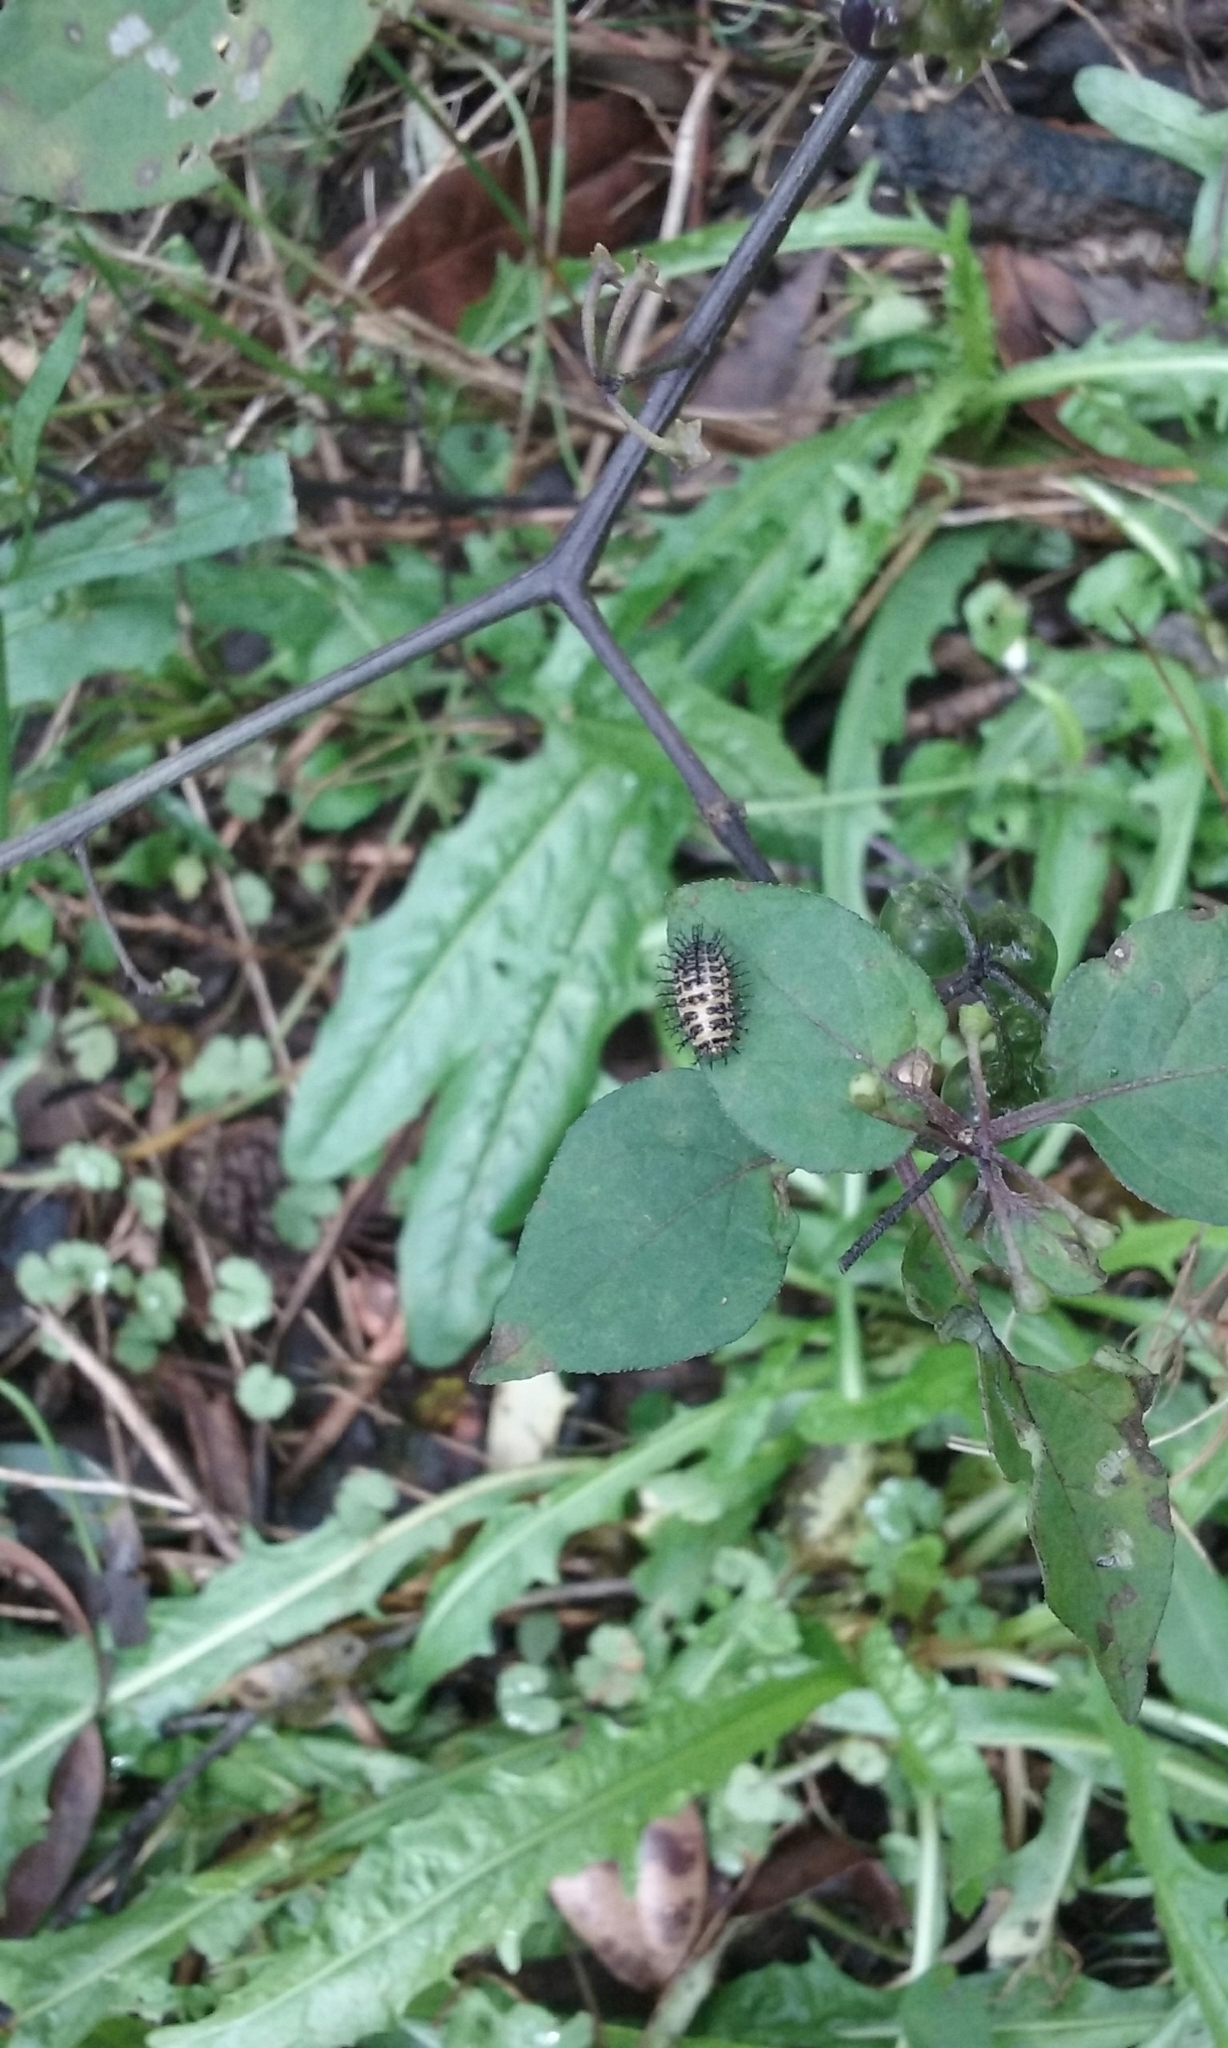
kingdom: Animalia
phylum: Arthropoda
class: Insecta
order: Coleoptera
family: Coccinellidae
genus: Henosepilachna
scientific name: Henosepilachna vigintioctopunctata
